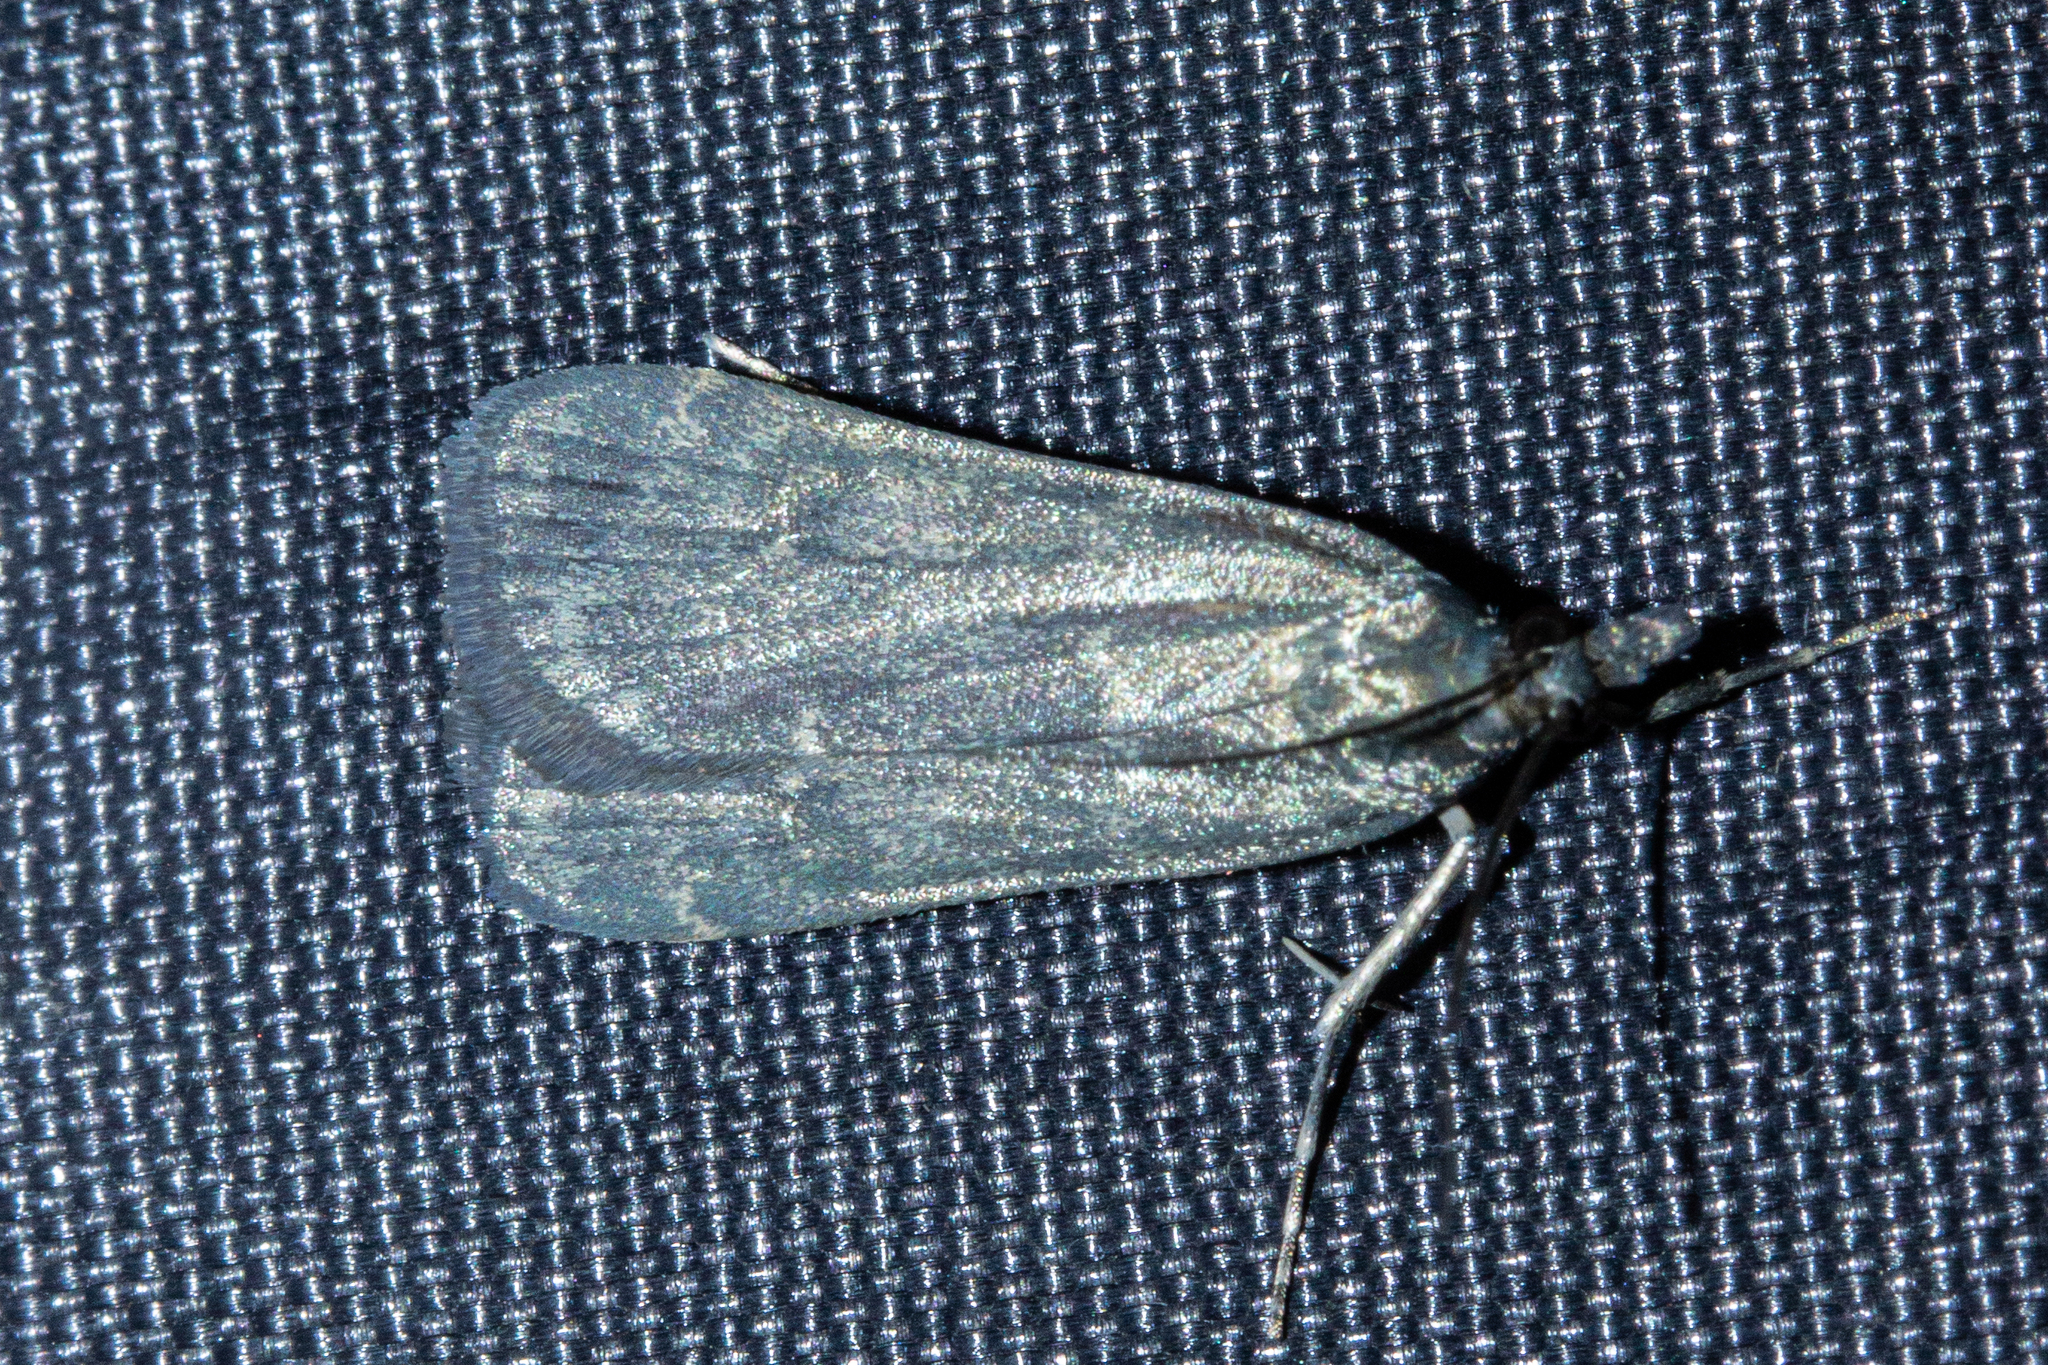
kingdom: Animalia
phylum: Arthropoda
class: Insecta
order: Lepidoptera
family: Crambidae
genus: Eudonia
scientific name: Eudonia cataxesta
